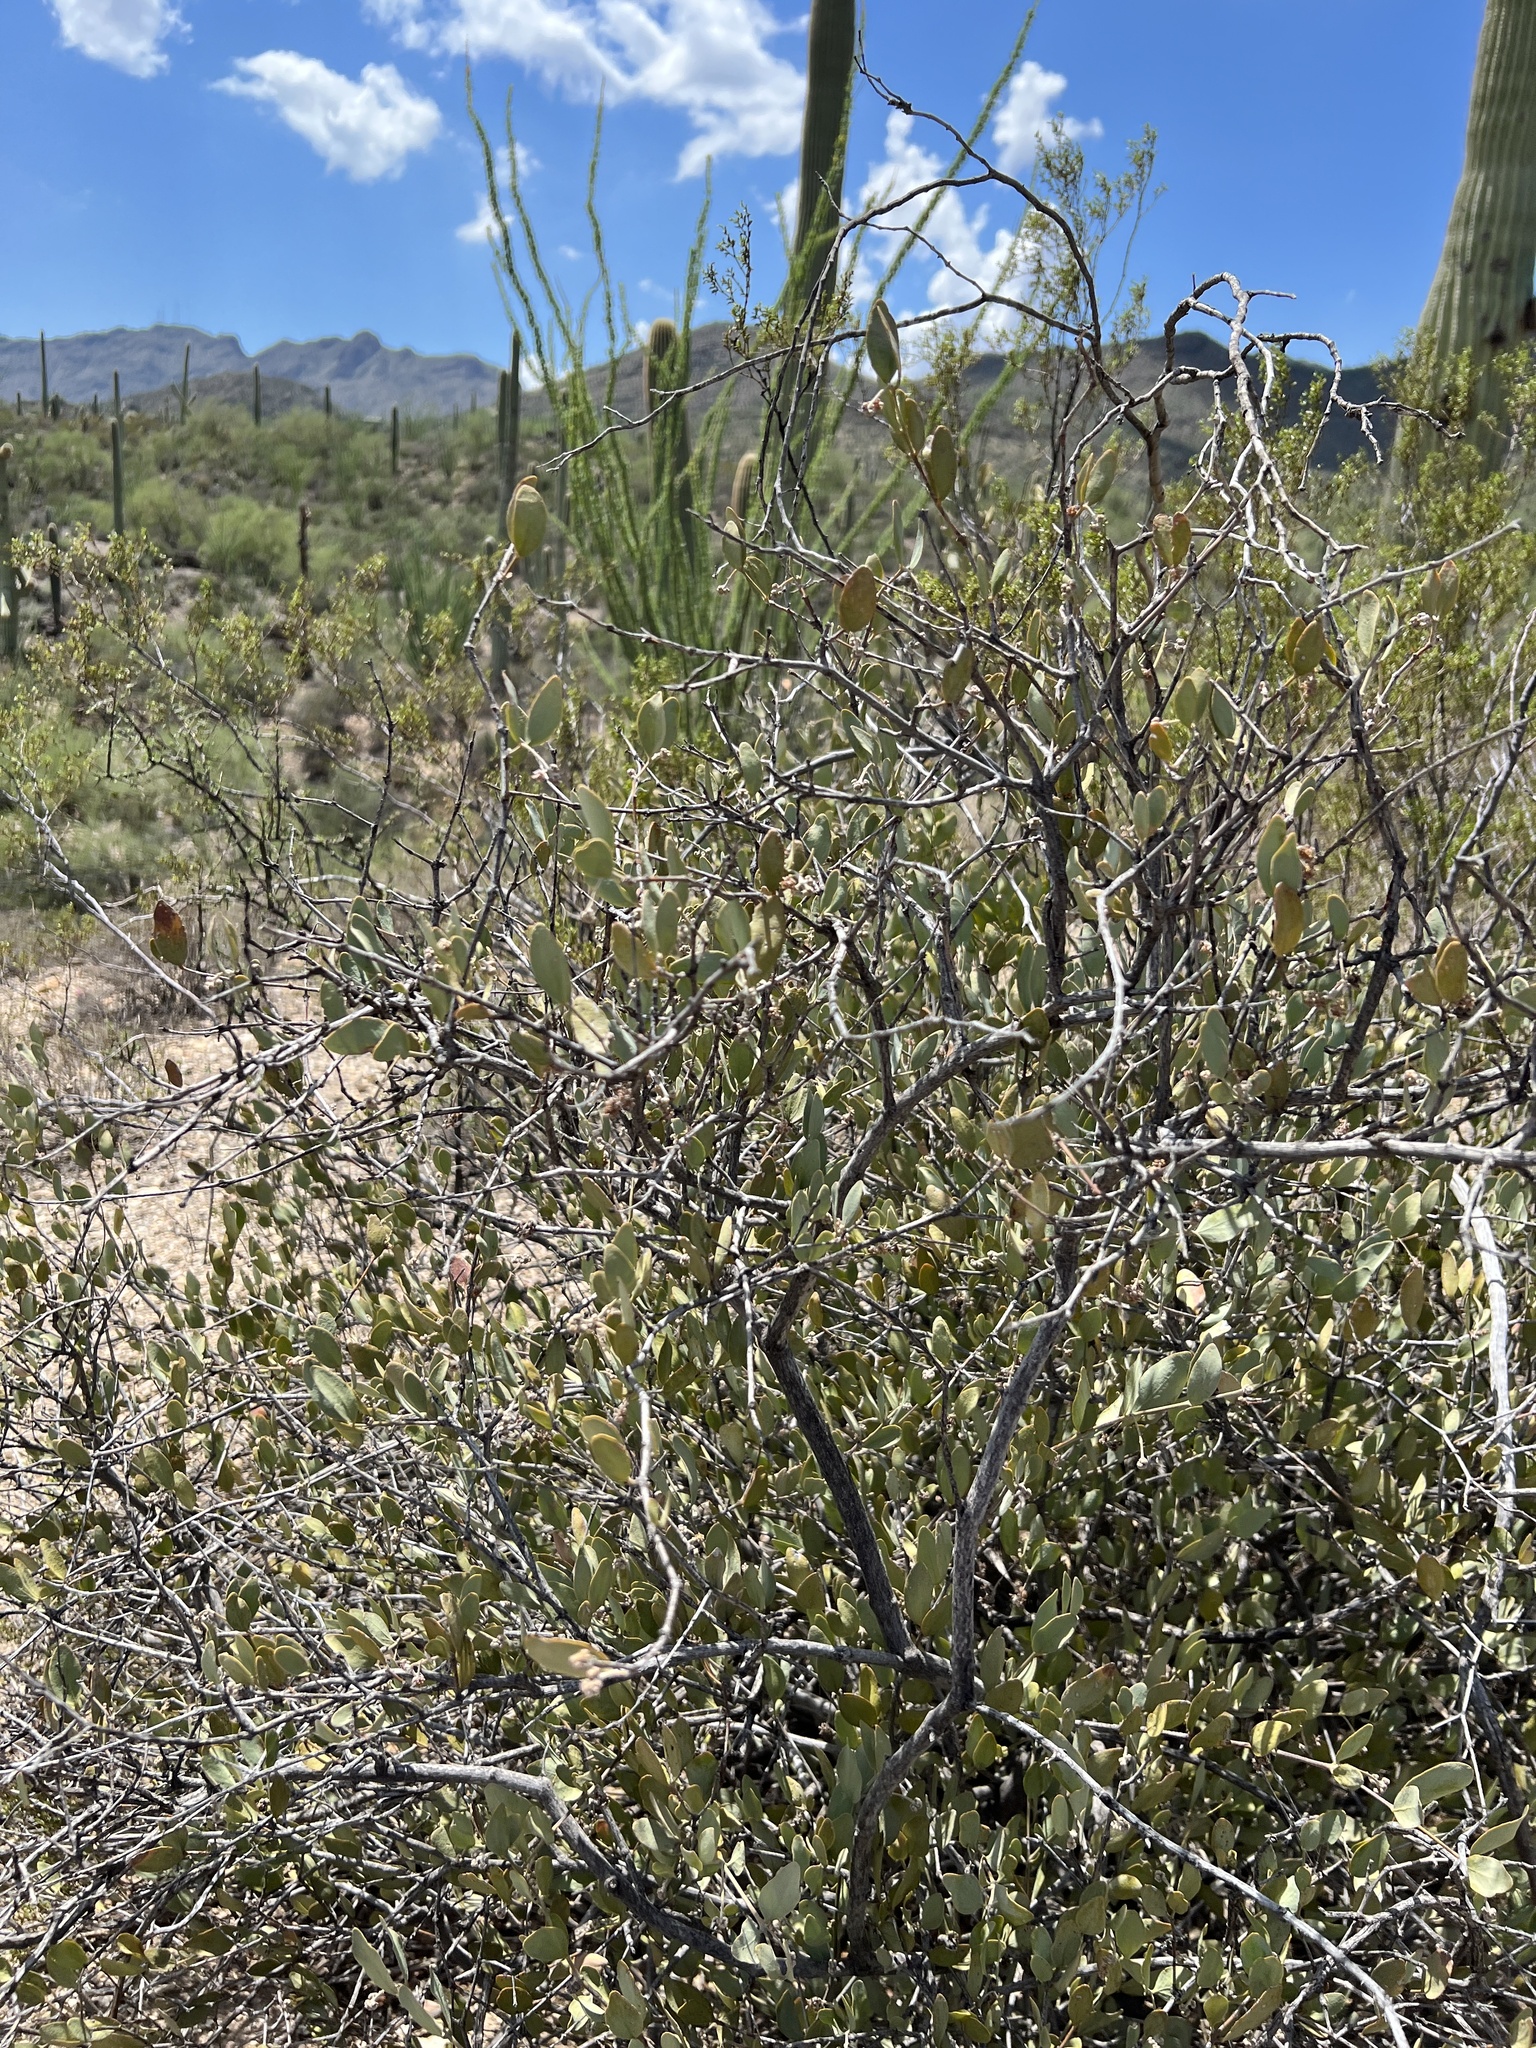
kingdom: Plantae
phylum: Tracheophyta
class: Magnoliopsida
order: Caryophyllales
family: Simmondsiaceae
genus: Simmondsia
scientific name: Simmondsia chinensis
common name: Jojoba
